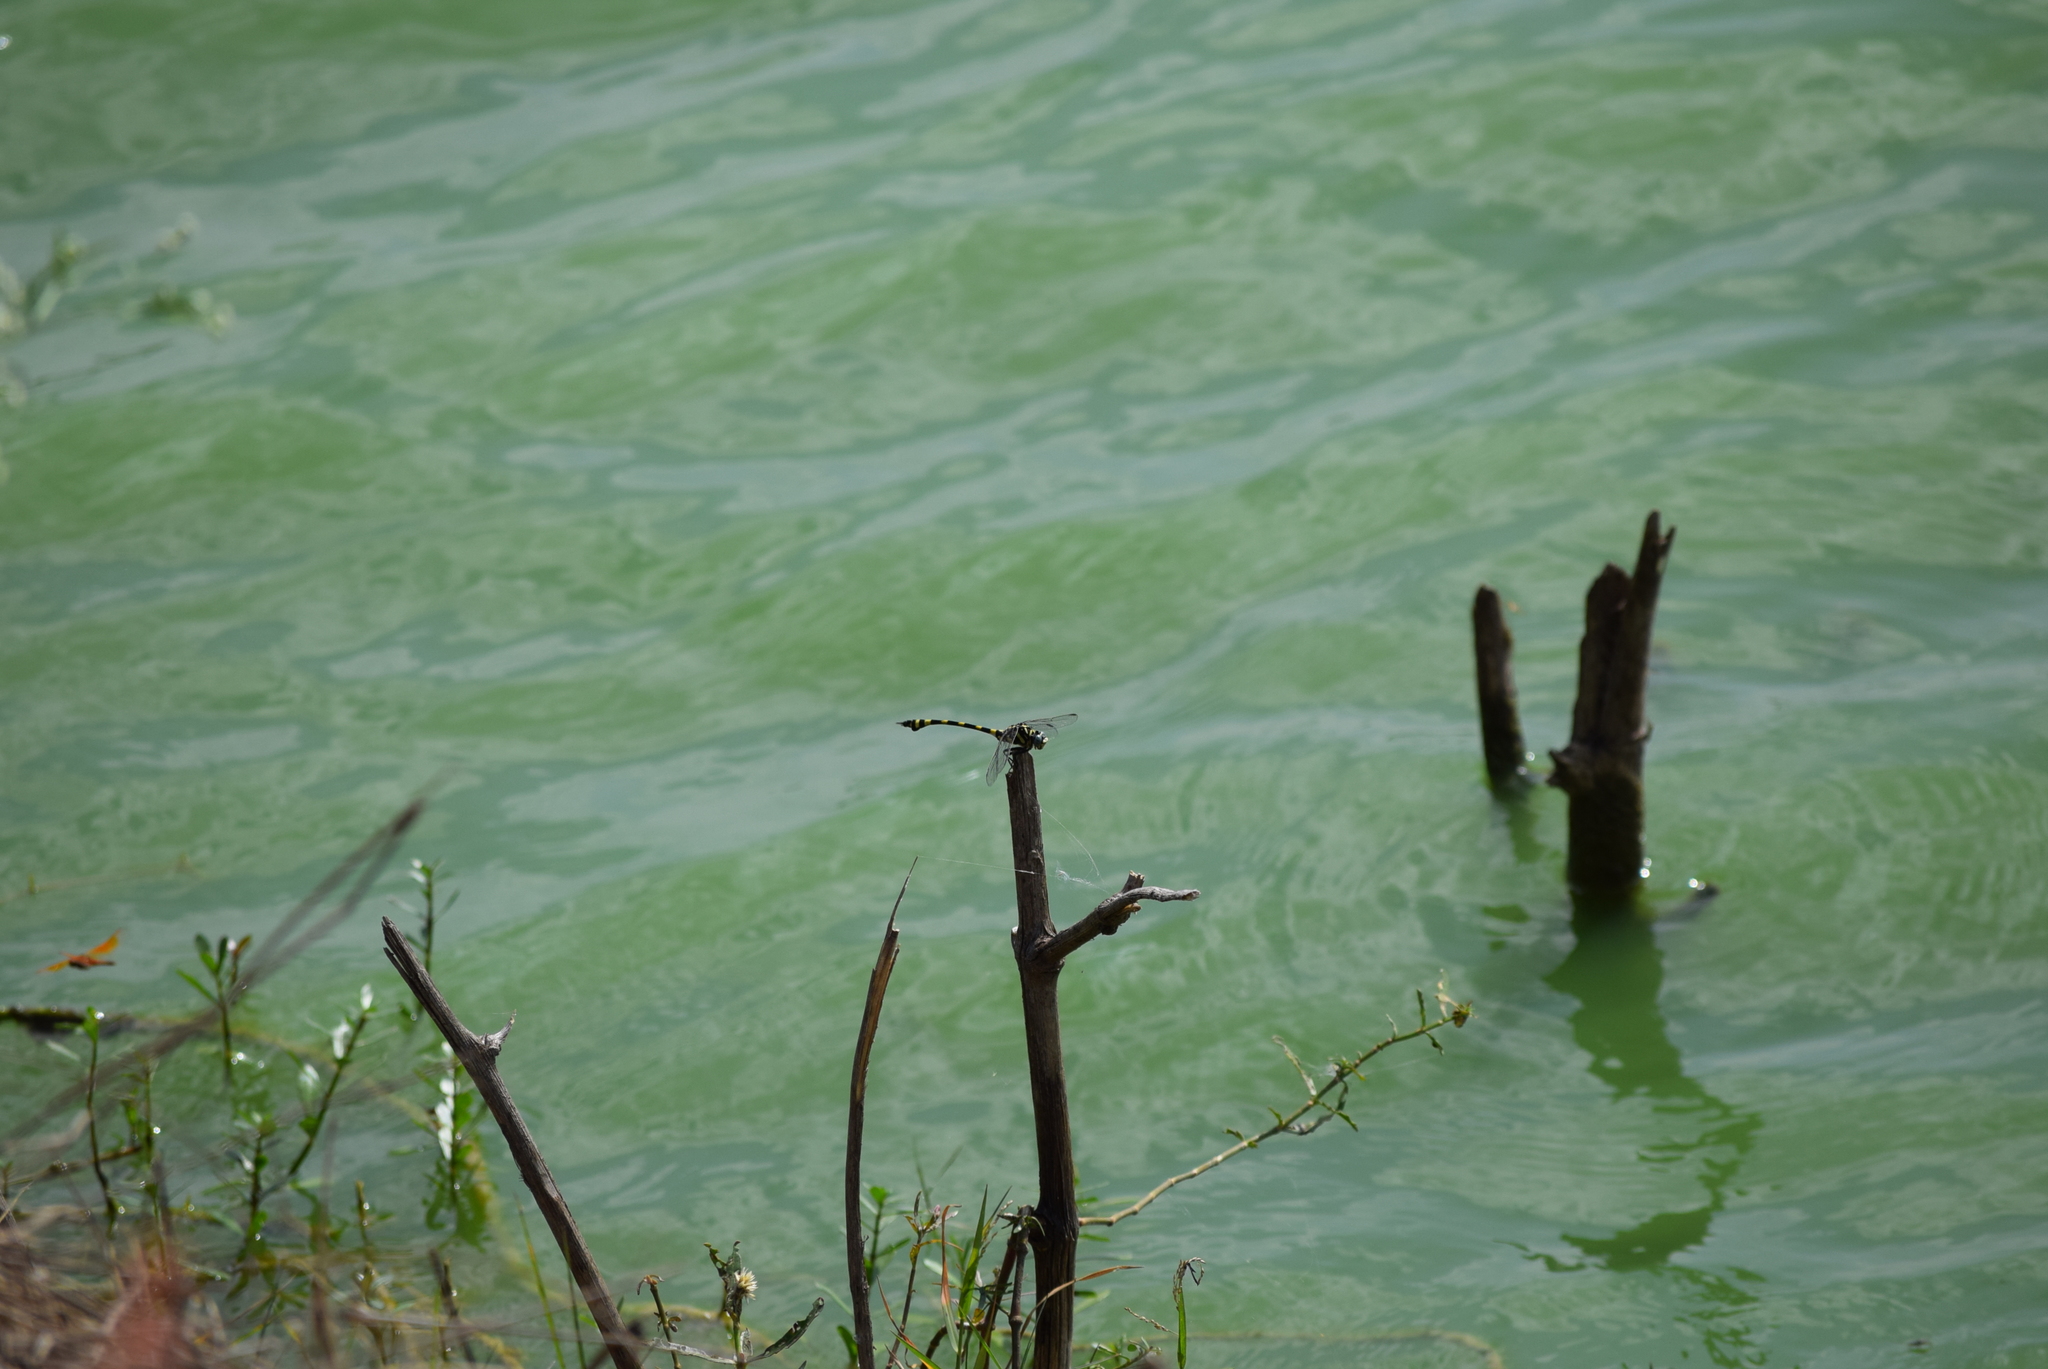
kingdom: Animalia
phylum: Arthropoda
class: Insecta
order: Odonata
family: Gomphidae
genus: Ictinogomphus
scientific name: Ictinogomphus rapax
